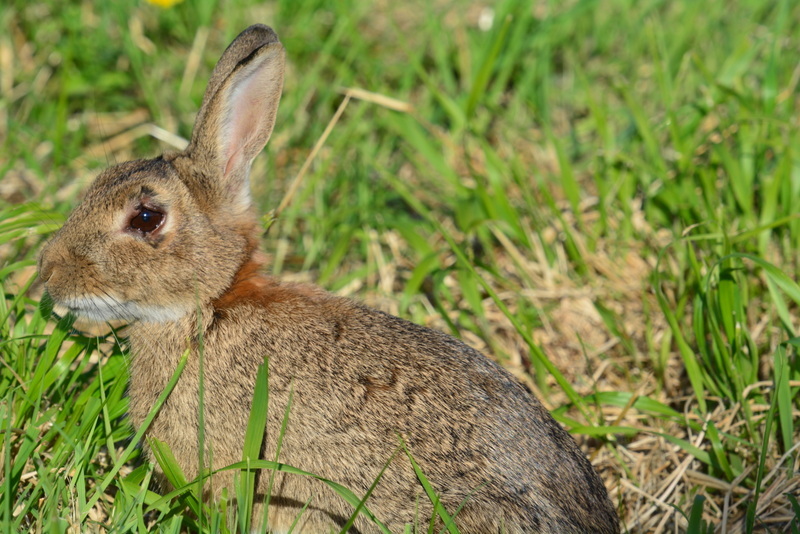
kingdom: Animalia
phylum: Chordata
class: Mammalia
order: Lagomorpha
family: Leporidae
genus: Oryctolagus
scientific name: Oryctolagus cuniculus
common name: European rabbit
